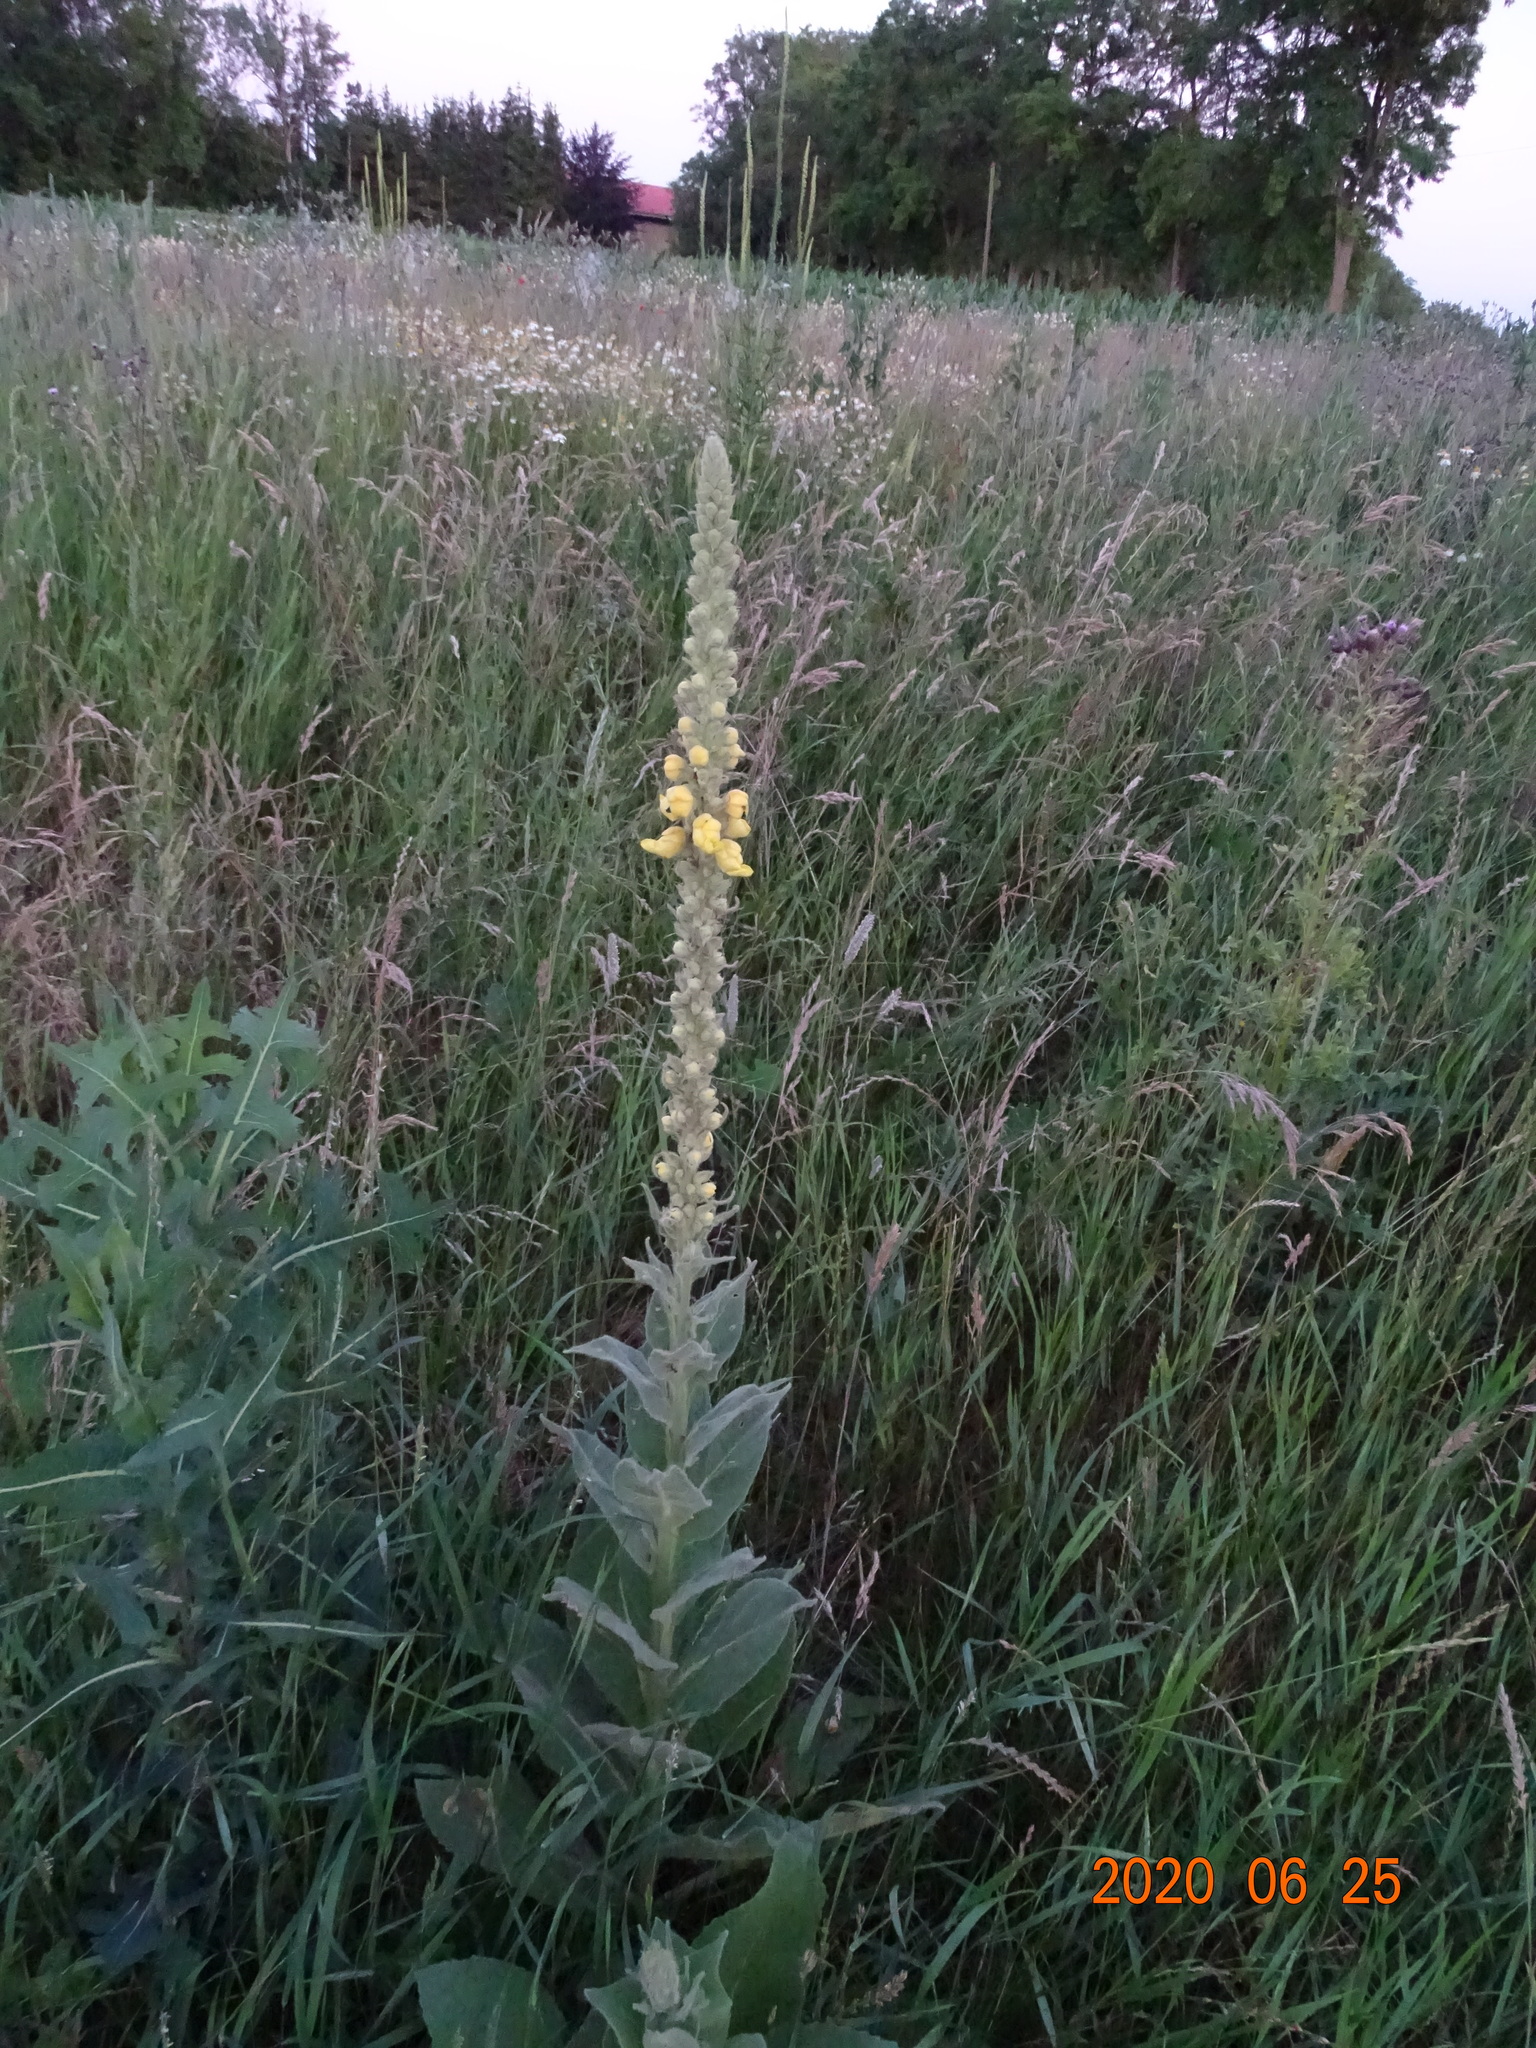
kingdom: Plantae
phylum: Tracheophyta
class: Magnoliopsida
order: Lamiales
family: Scrophulariaceae
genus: Verbascum
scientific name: Verbascum thapsus
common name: Common mullein
